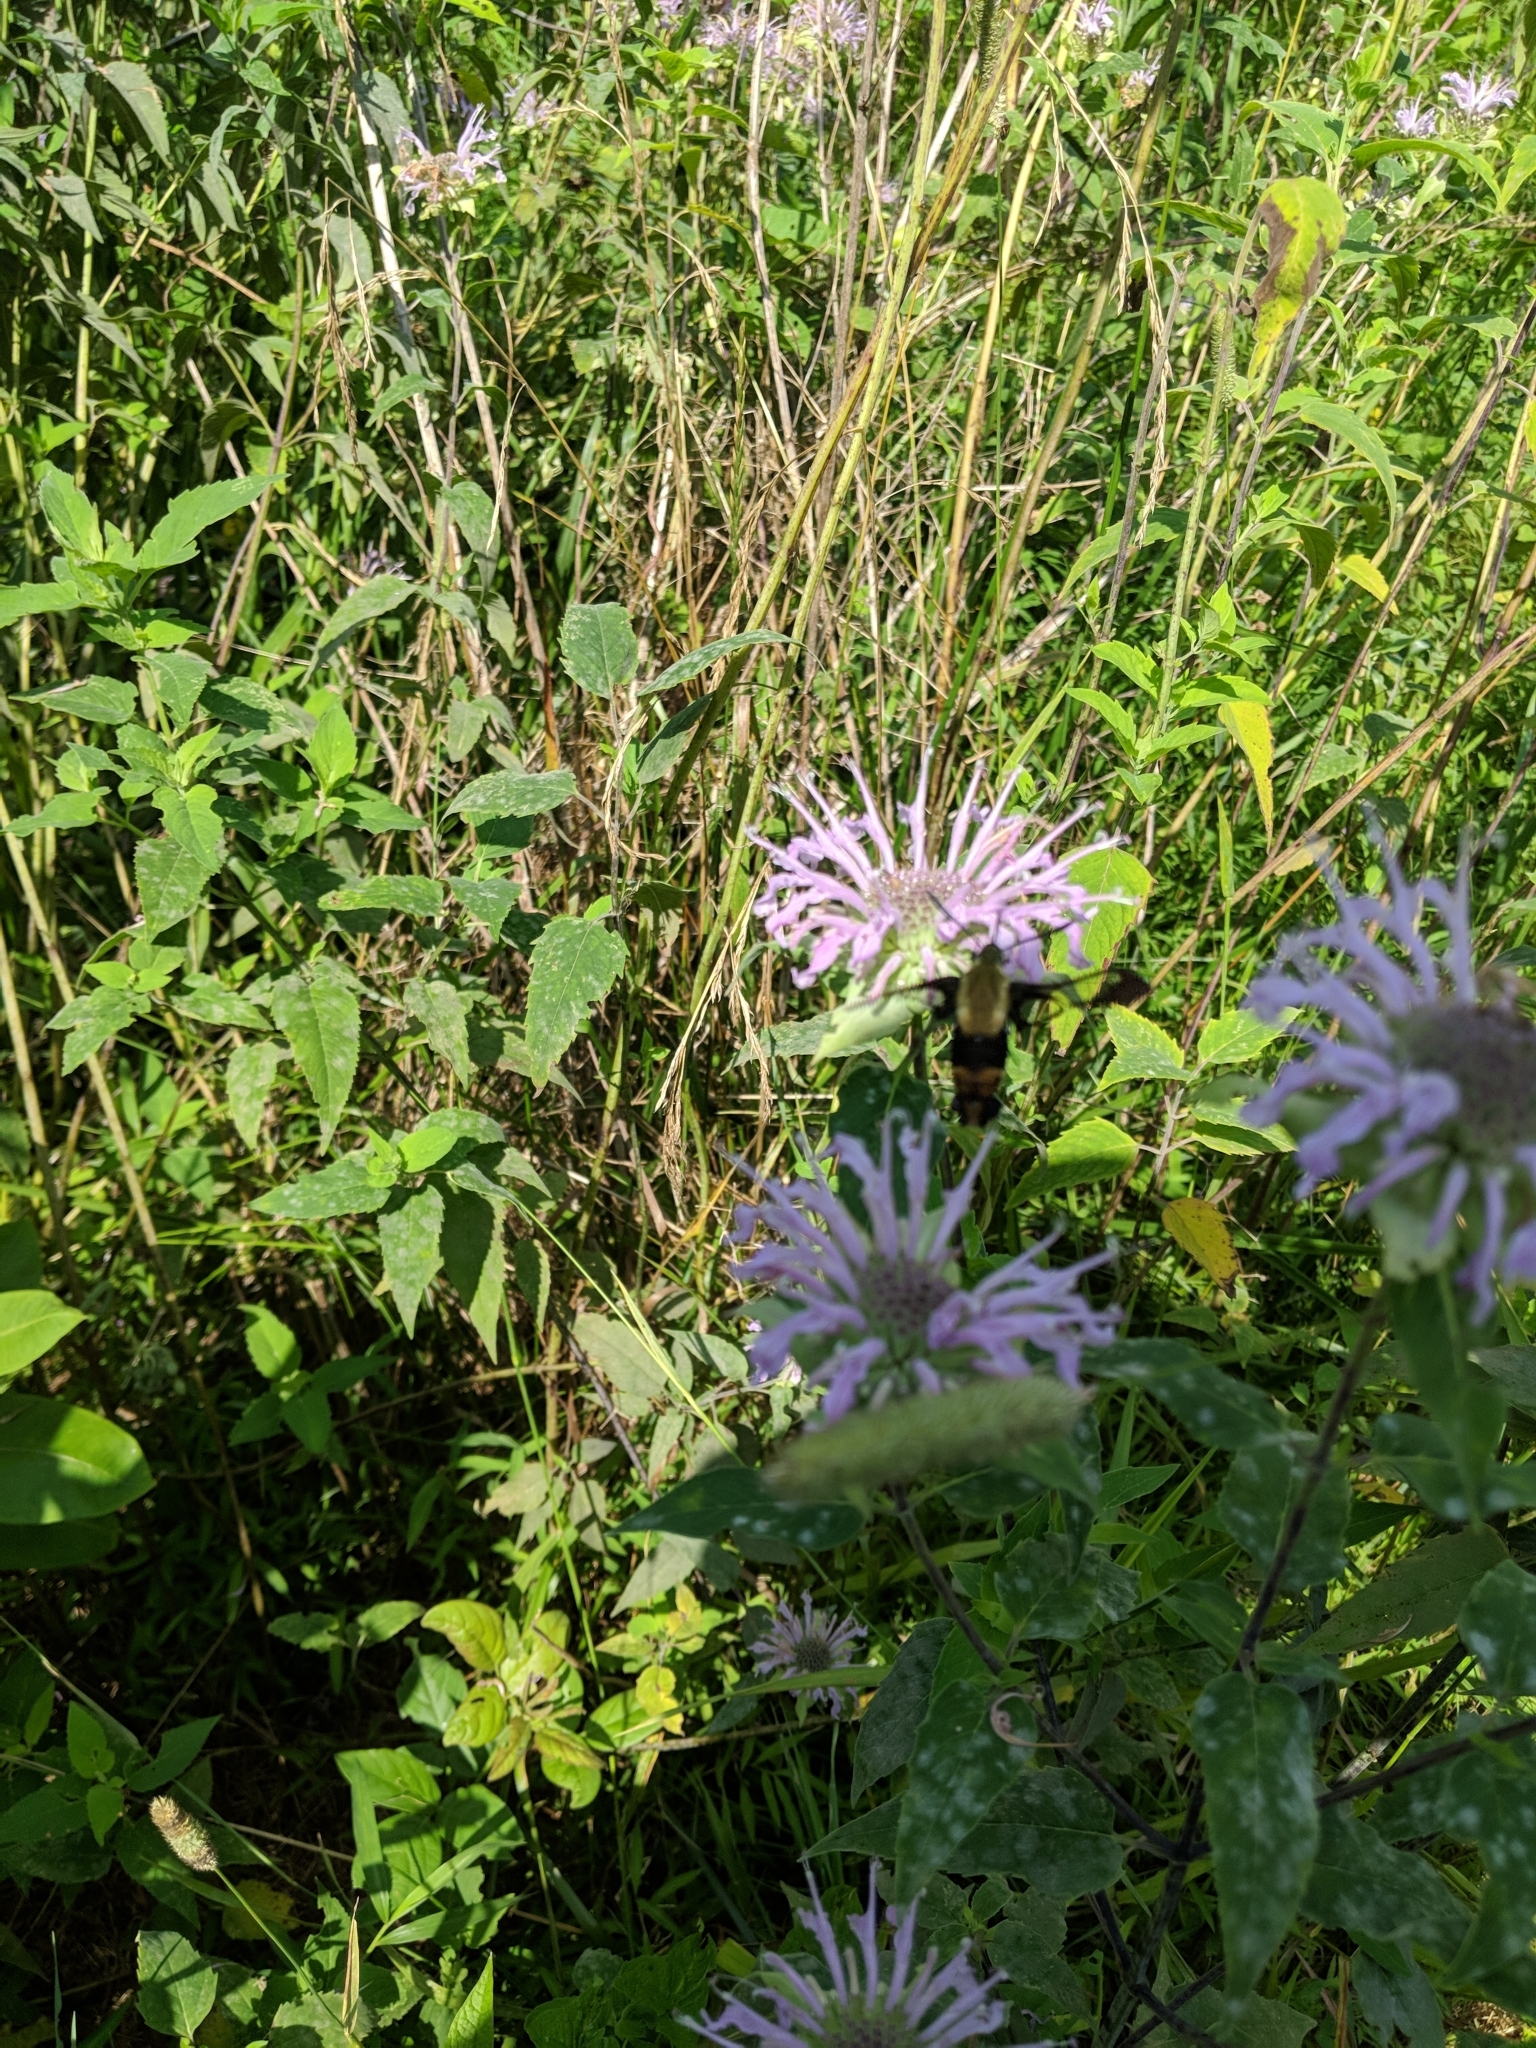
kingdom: Animalia
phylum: Arthropoda
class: Insecta
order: Lepidoptera
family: Sphingidae
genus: Hemaris
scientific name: Hemaris diffinis
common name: Bumblebee moth
